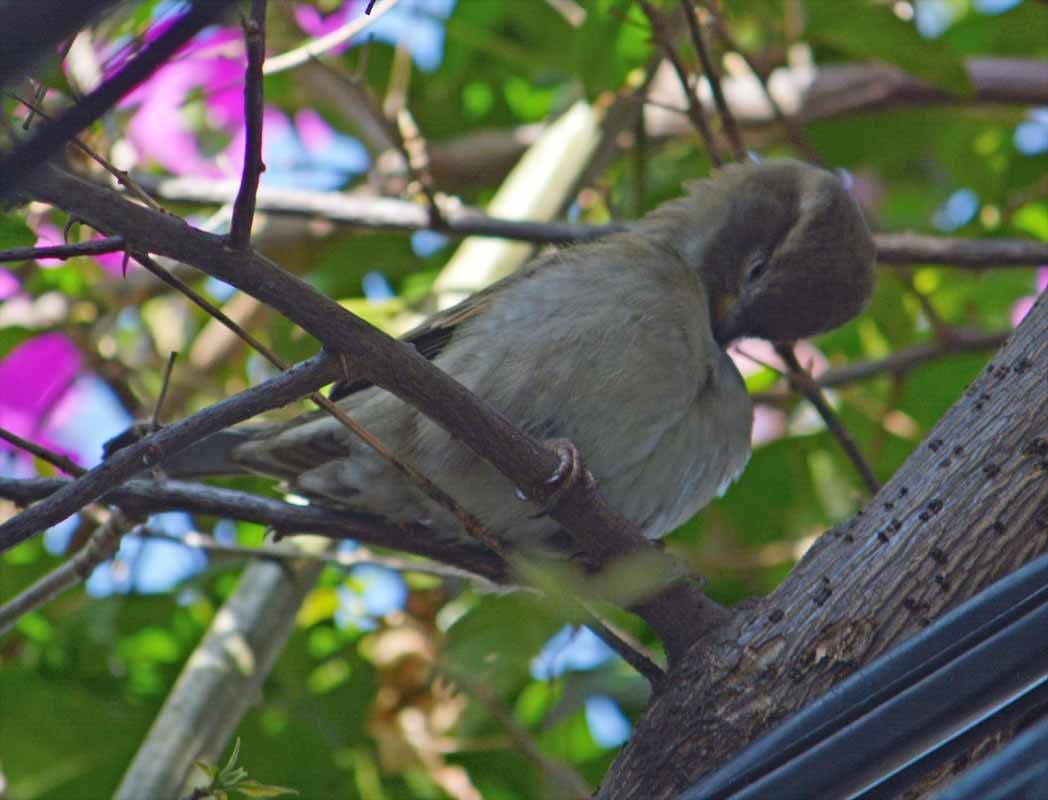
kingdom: Animalia
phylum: Chordata
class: Aves
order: Passeriformes
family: Passeridae
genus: Passer
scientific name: Passer domesticus
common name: House sparrow
